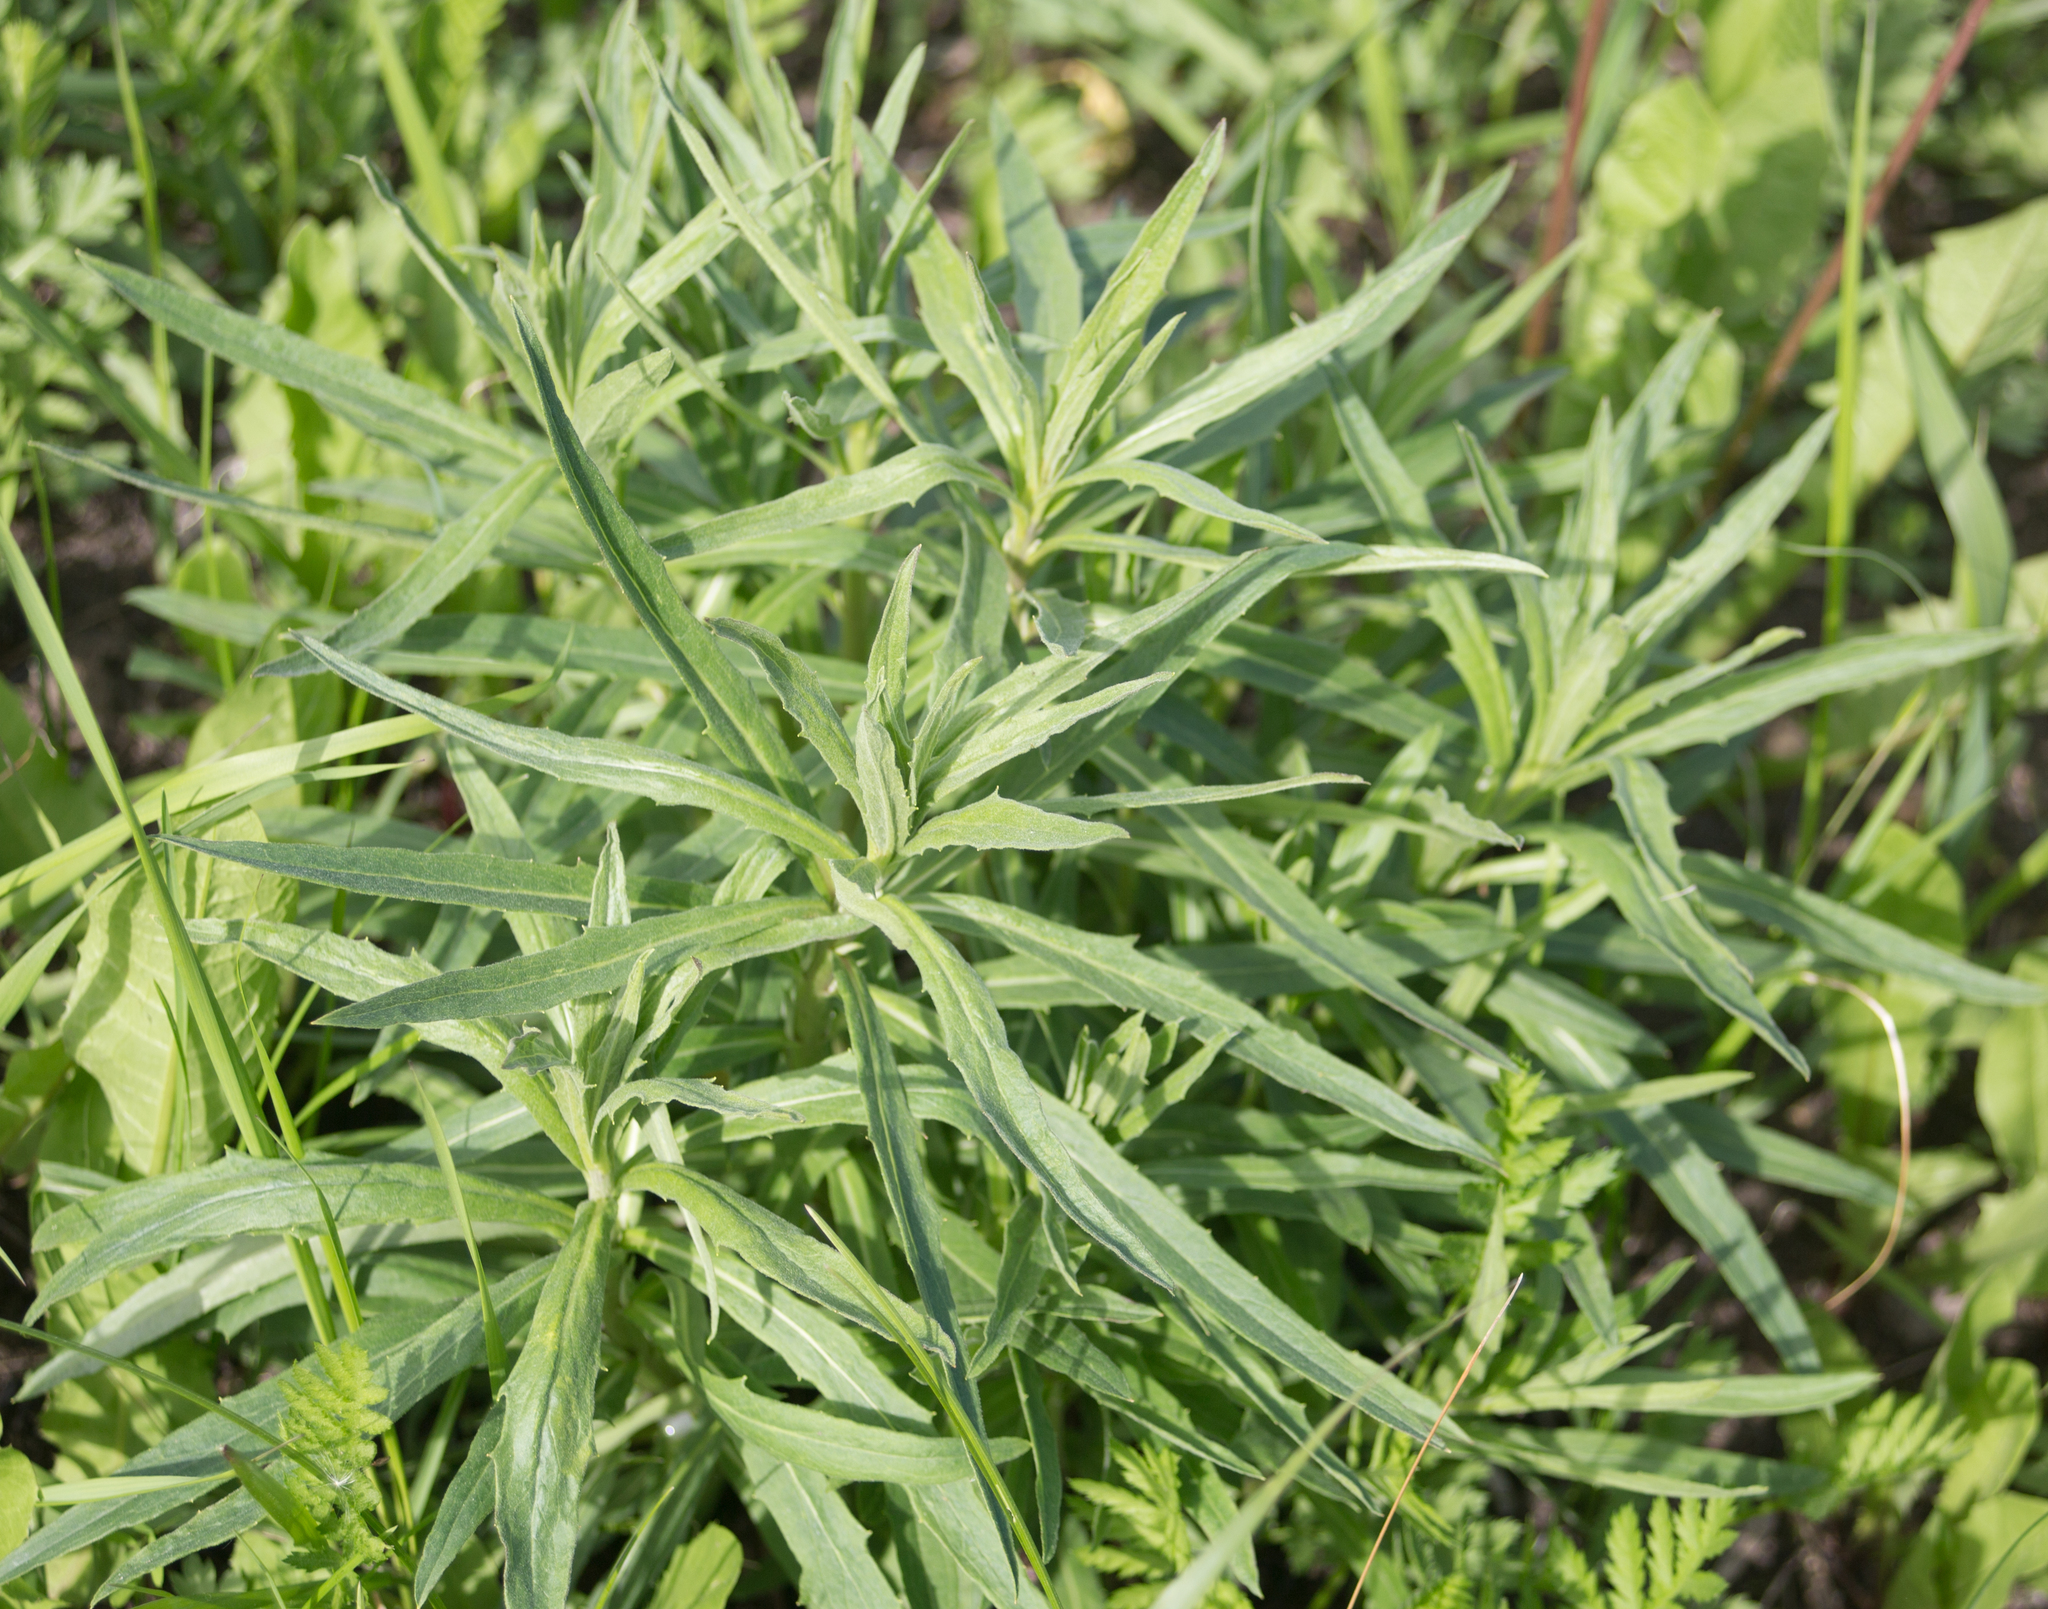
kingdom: Plantae
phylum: Tracheophyta
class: Magnoliopsida
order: Asterales
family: Asteraceae
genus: Hieracium
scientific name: Hieracium umbellatum
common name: Northern hawkweed
